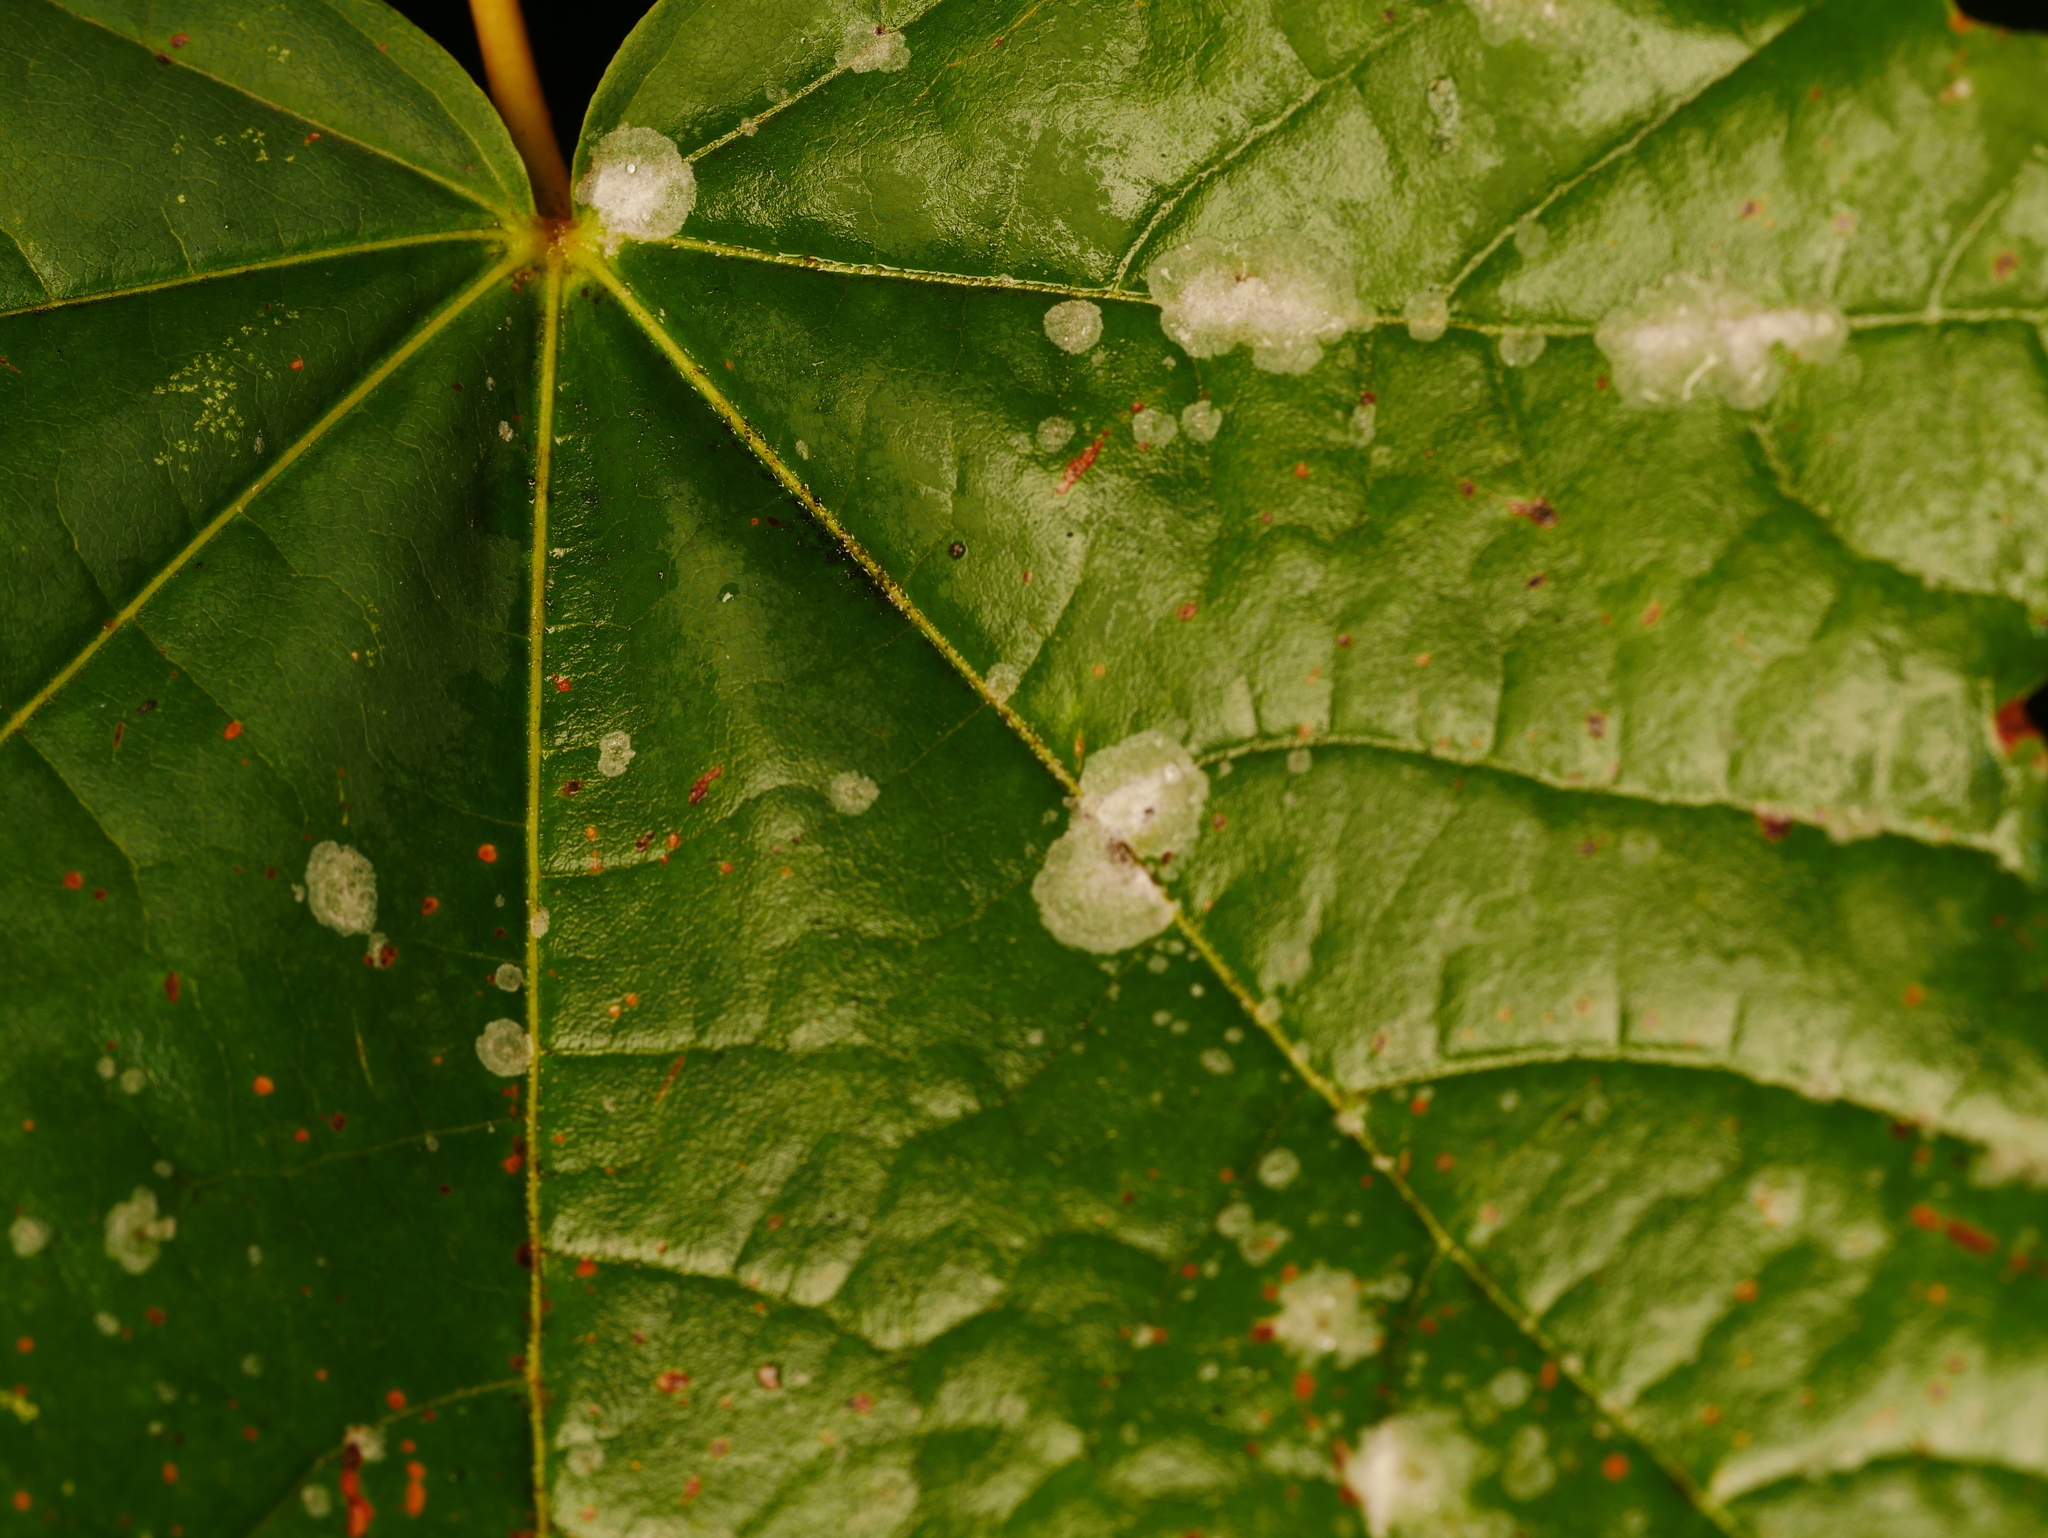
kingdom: Fungi
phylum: Ascomycota
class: Leotiomycetes
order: Helotiales
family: Erysiphaceae
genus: Sawadaea
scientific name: Sawadaea tulasnei
